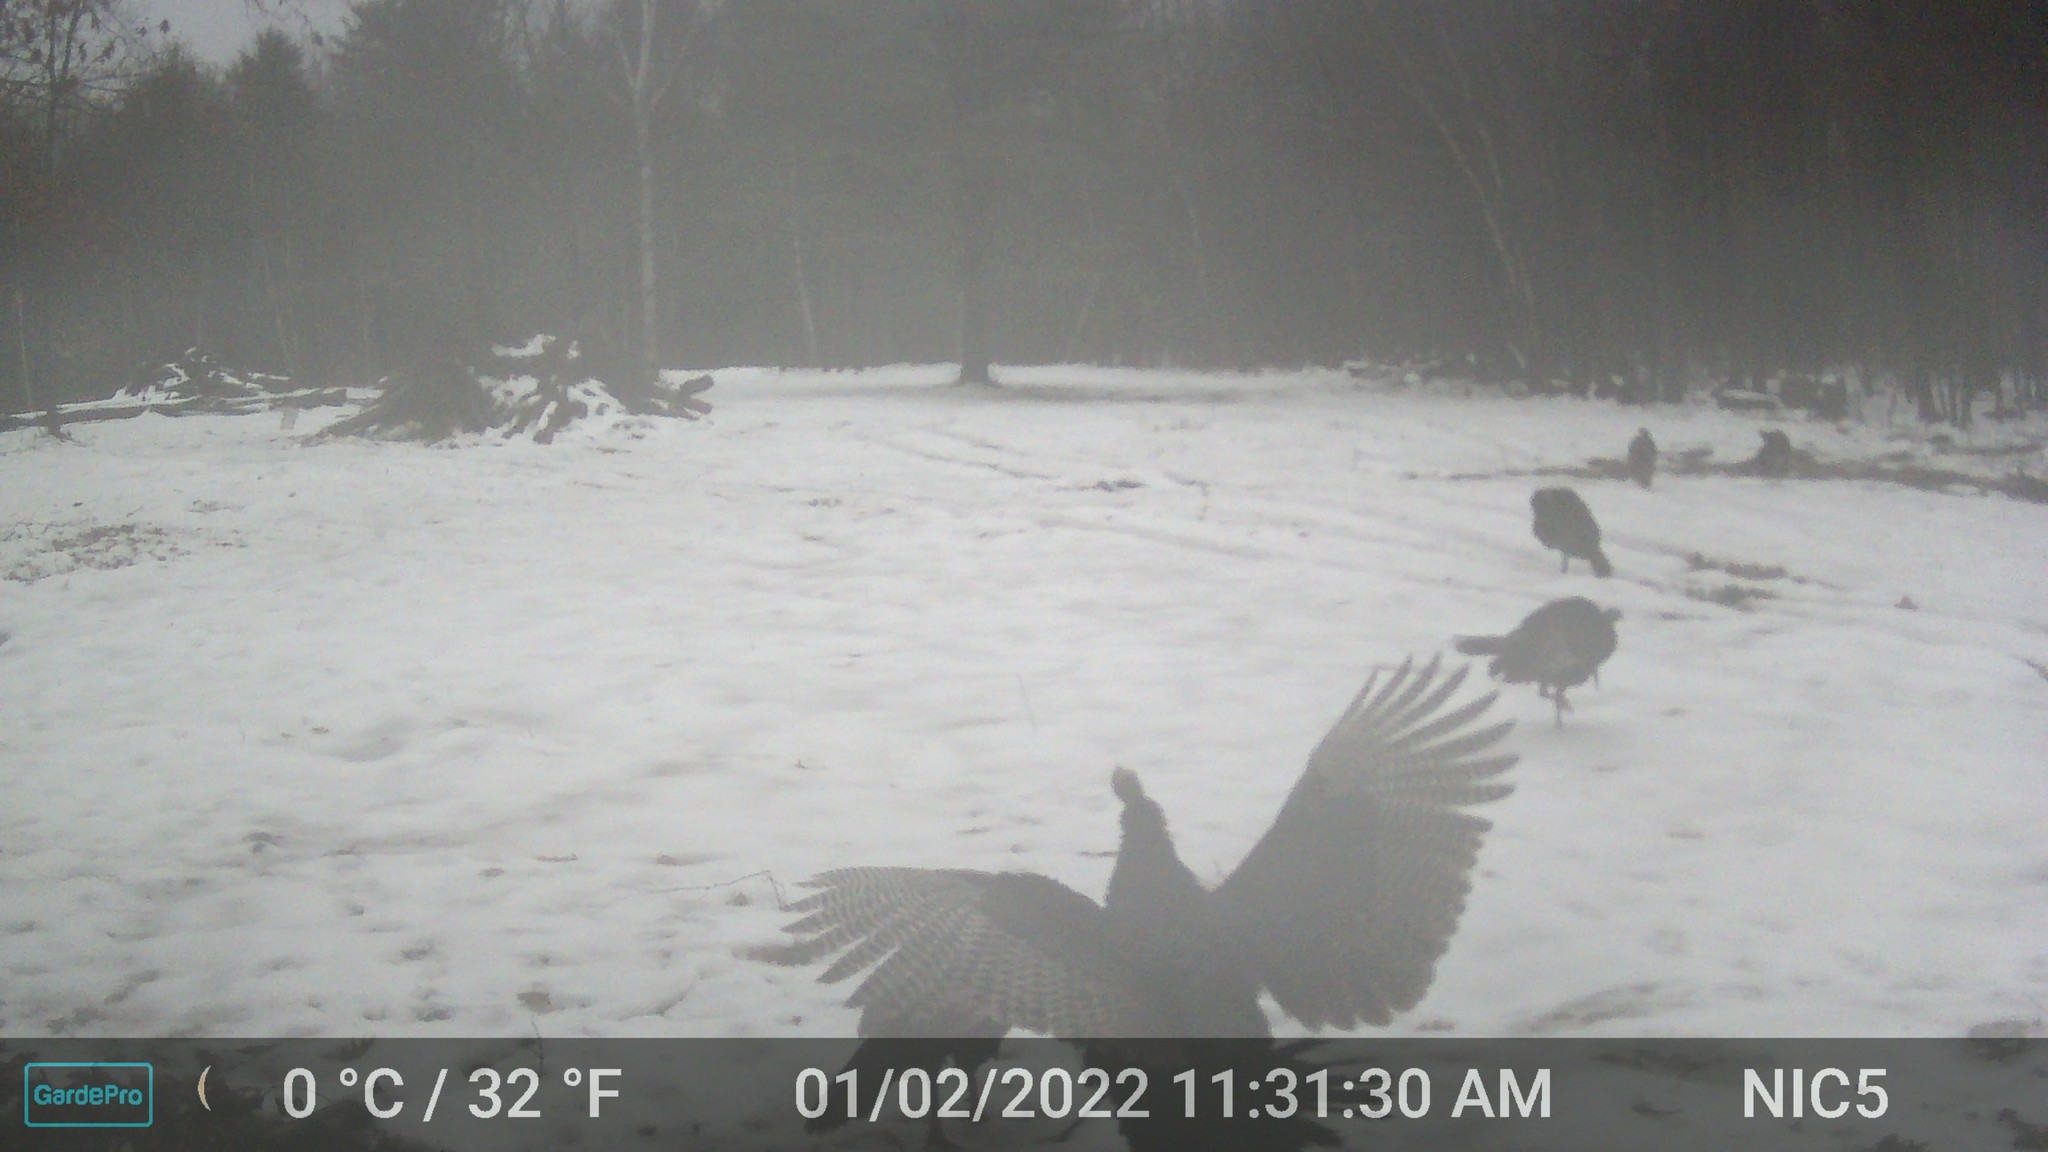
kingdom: Animalia
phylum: Chordata
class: Aves
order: Galliformes
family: Phasianidae
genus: Meleagris
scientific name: Meleagris gallopavo
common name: Wild turkey
